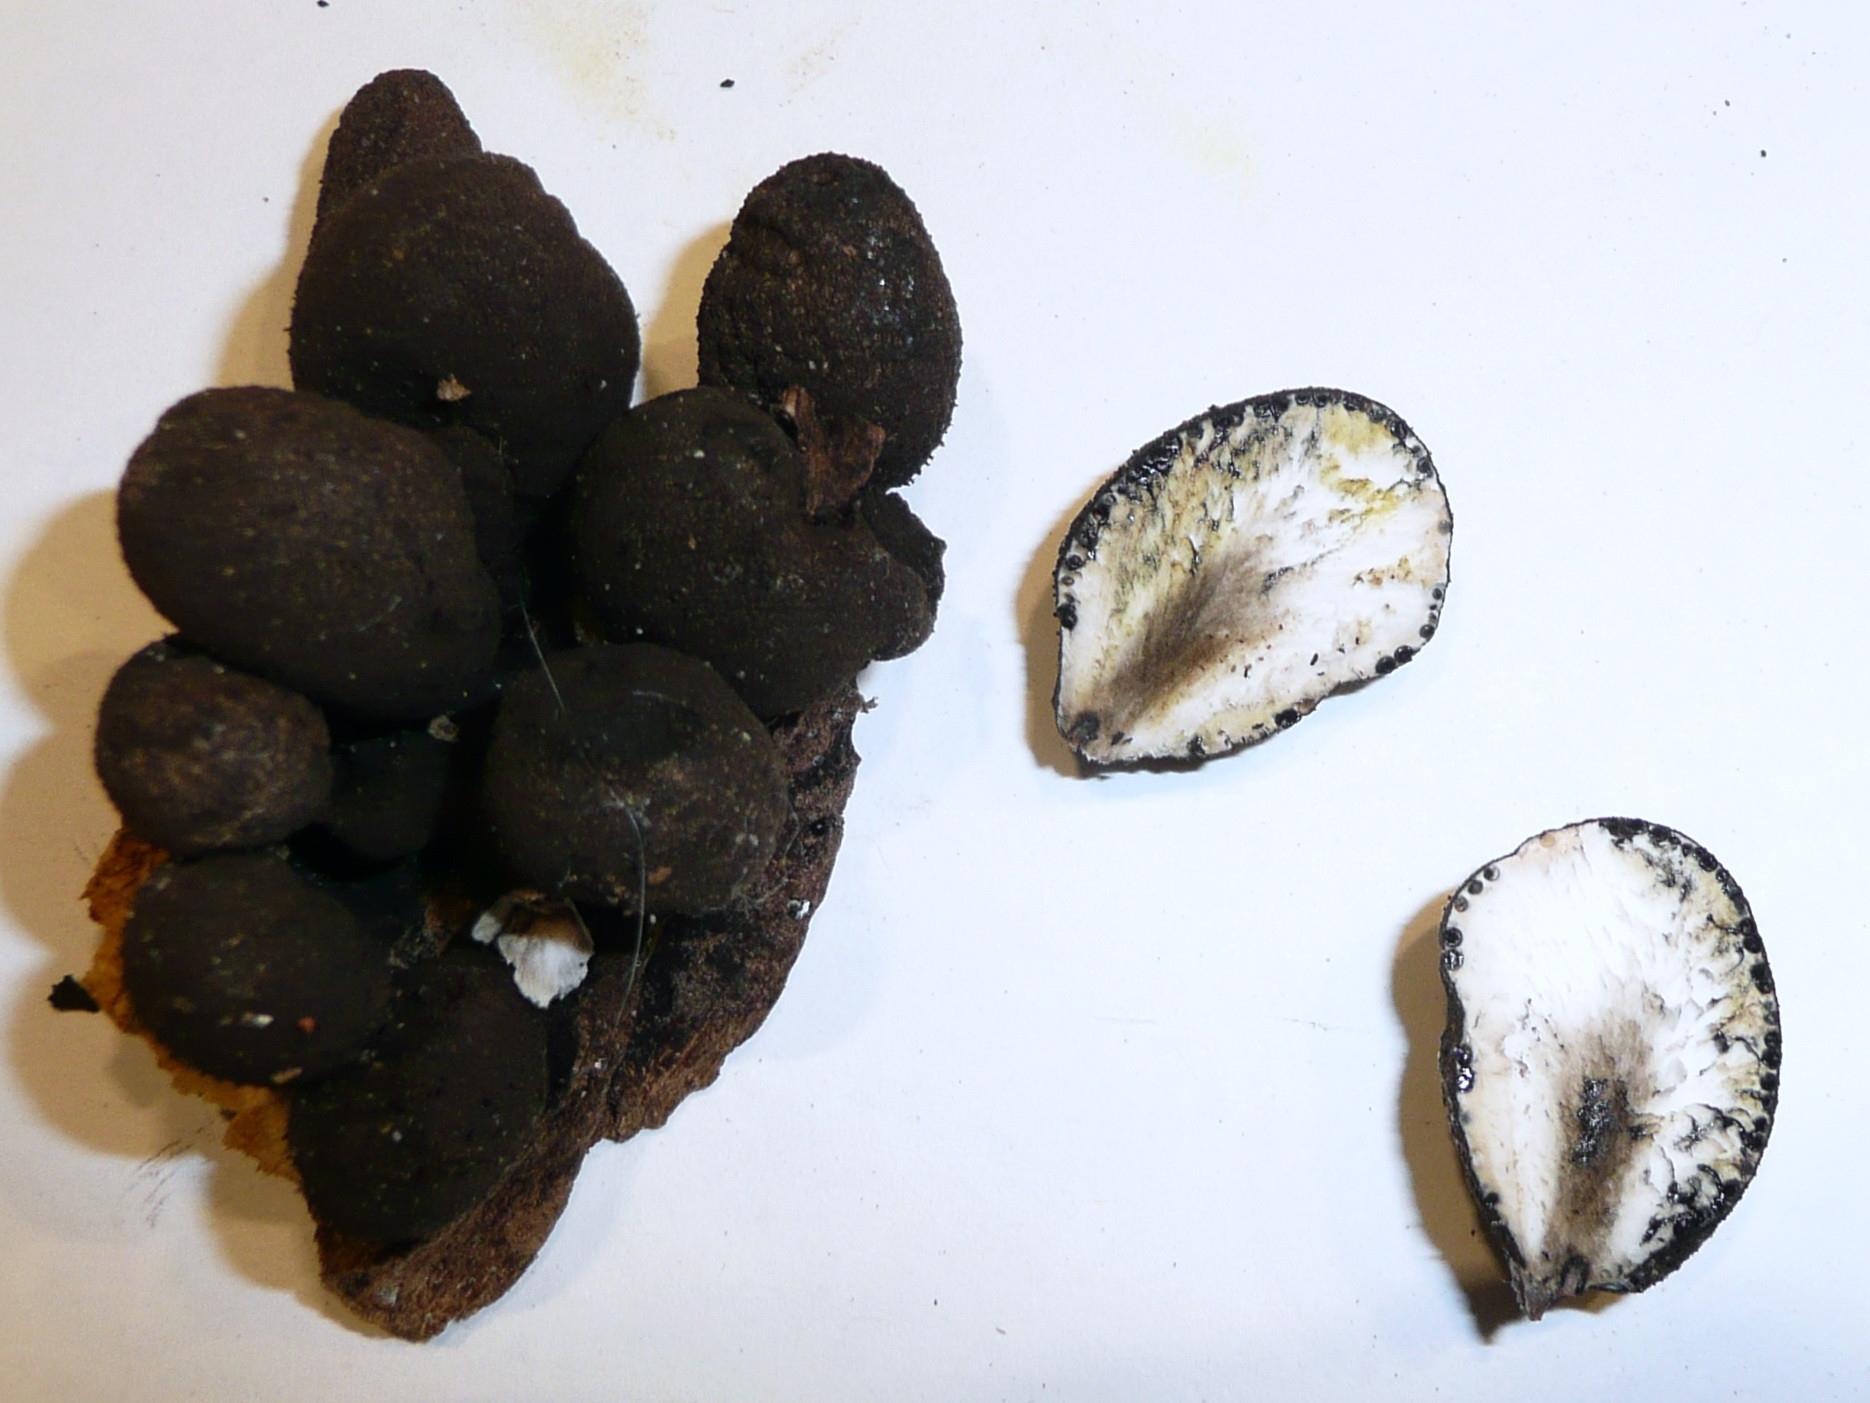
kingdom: Fungi
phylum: Ascomycota
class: Sordariomycetes
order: Xylariales
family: Xylariaceae
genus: Xylaria
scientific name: Xylaria polymorpha
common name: Dead man's fingers
